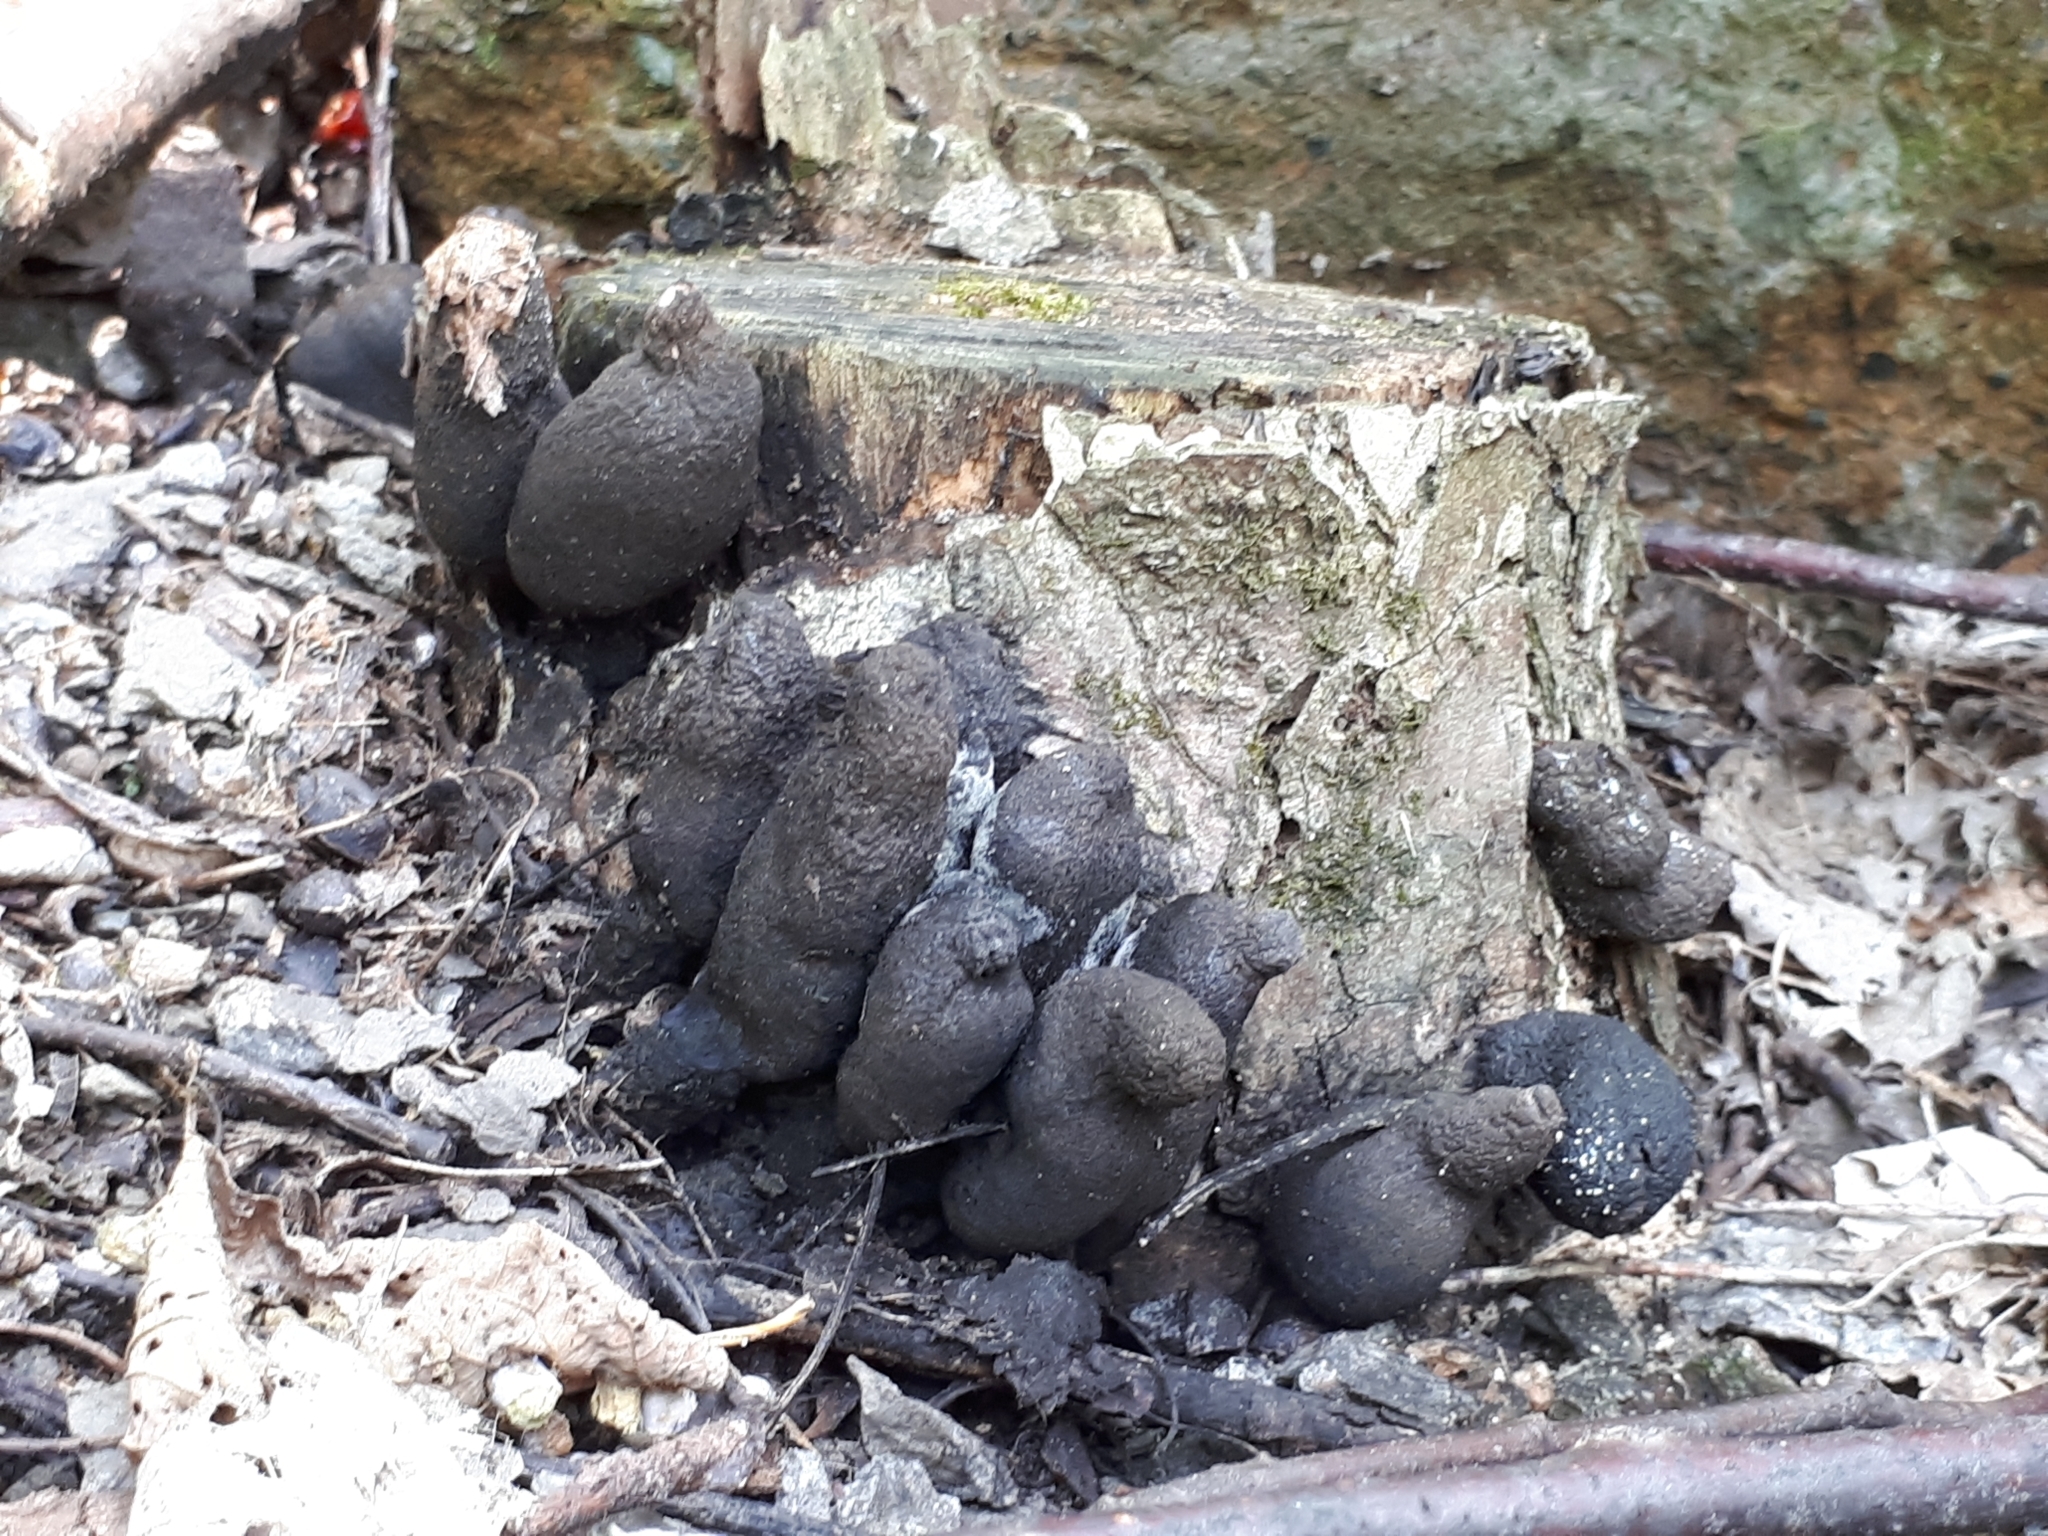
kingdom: Fungi
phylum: Ascomycota
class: Sordariomycetes
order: Xylariales
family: Xylariaceae
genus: Xylaria
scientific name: Xylaria polymorpha
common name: Dead man's fingers
